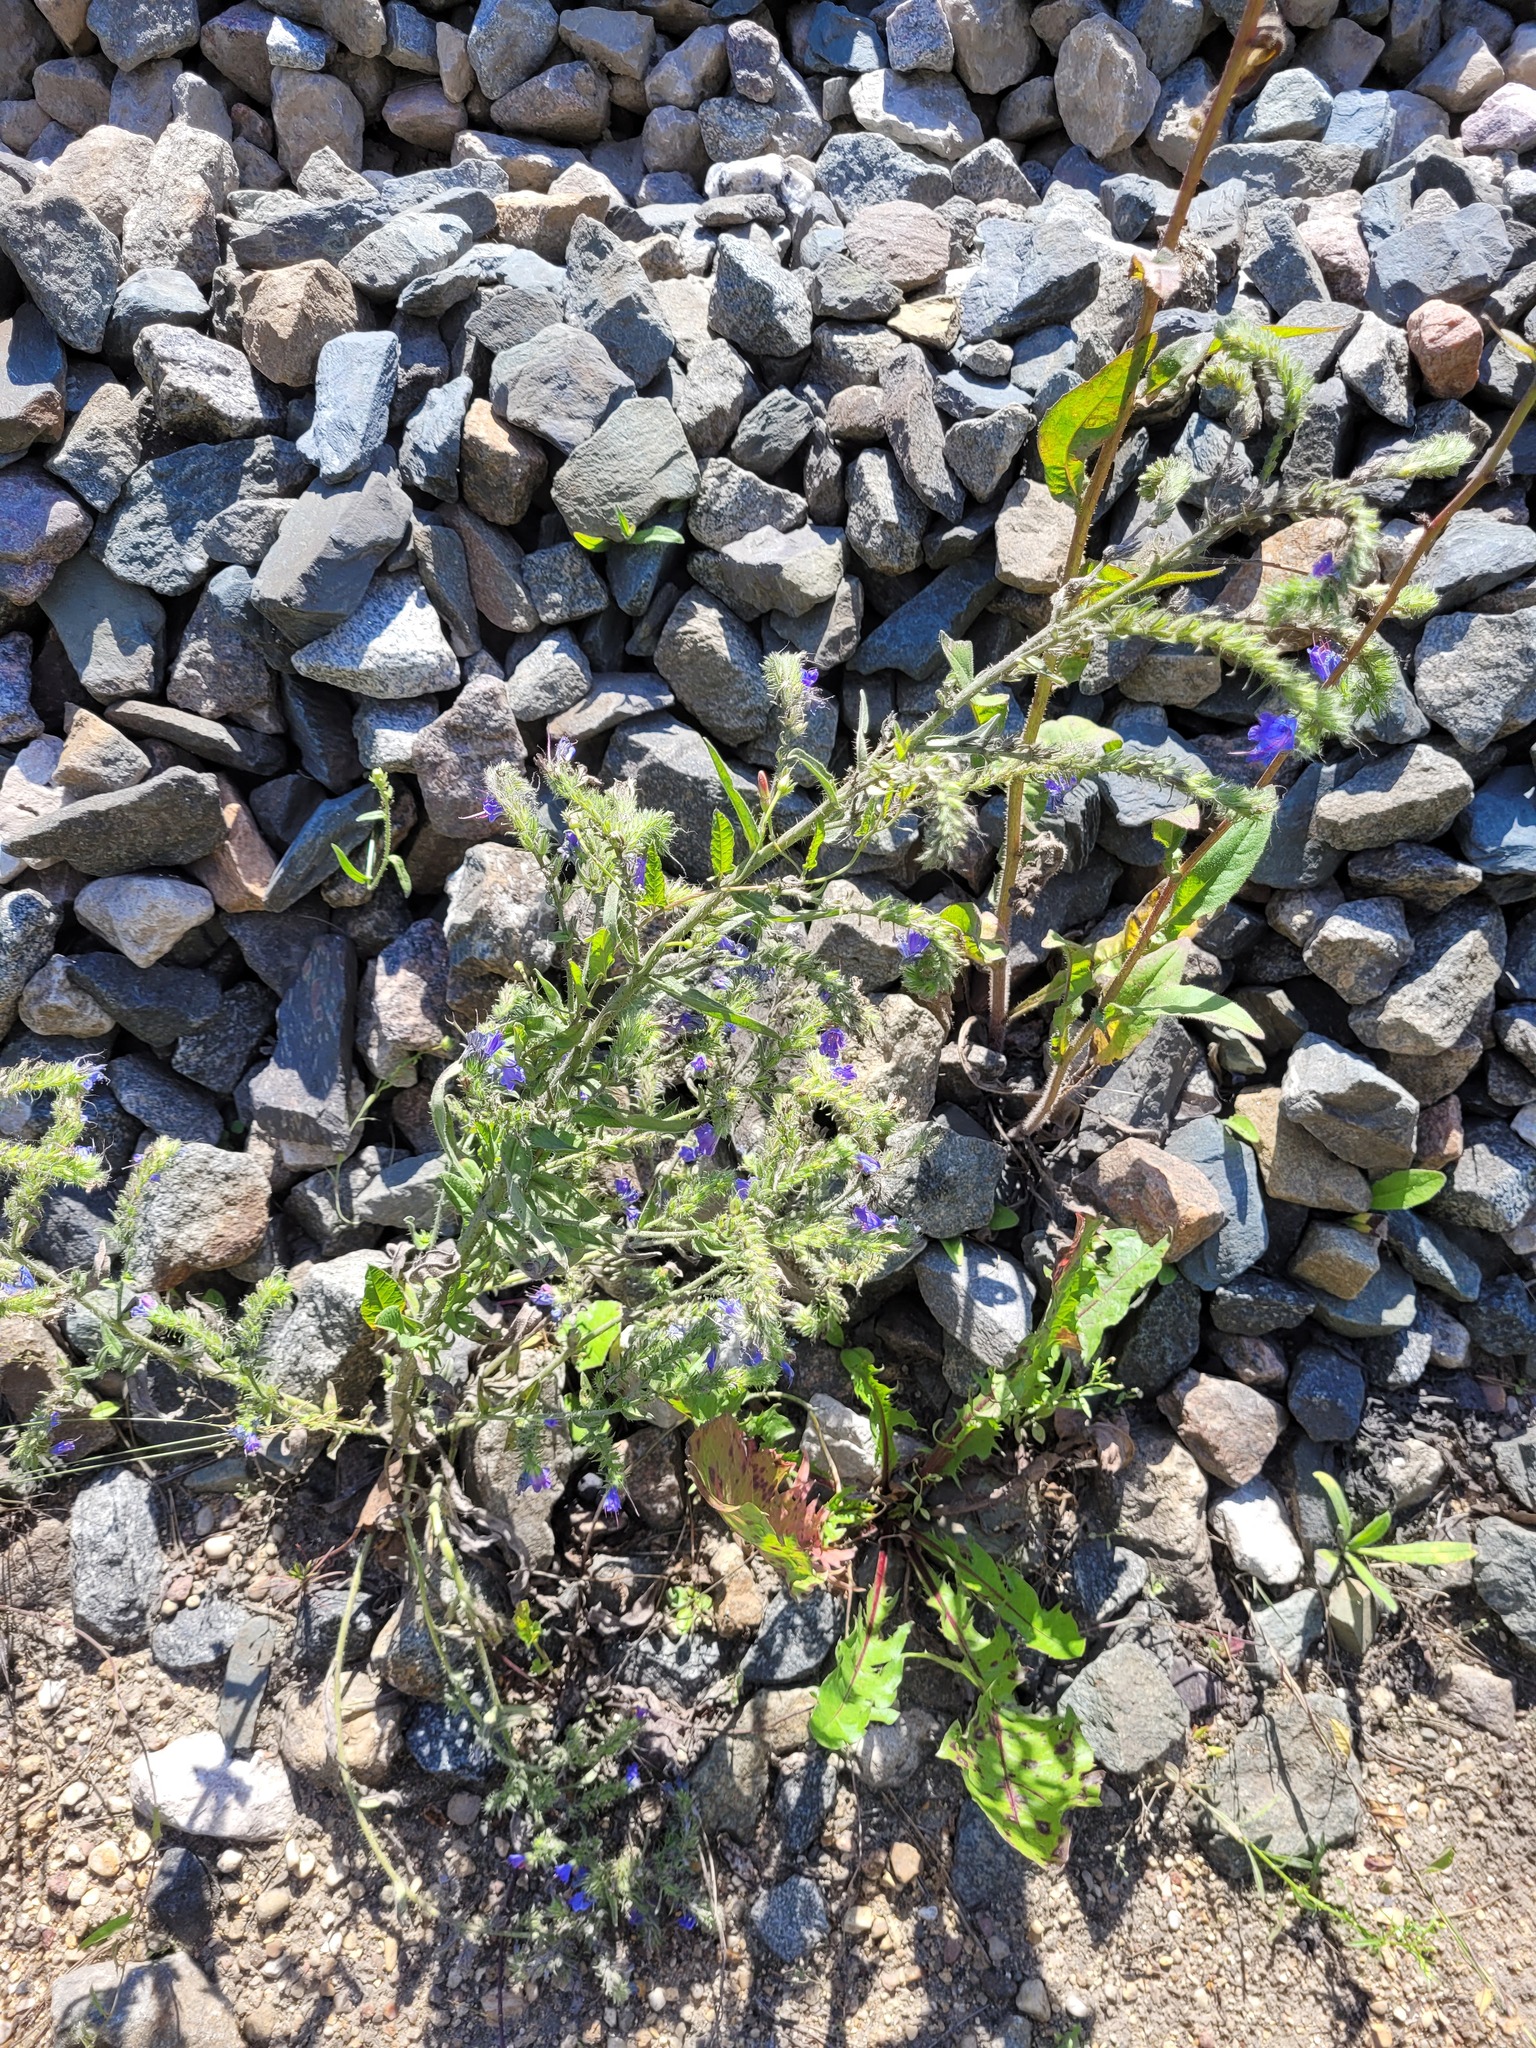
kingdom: Plantae
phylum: Tracheophyta
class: Magnoliopsida
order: Boraginales
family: Boraginaceae
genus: Echium
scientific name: Echium vulgare
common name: Common viper's bugloss
